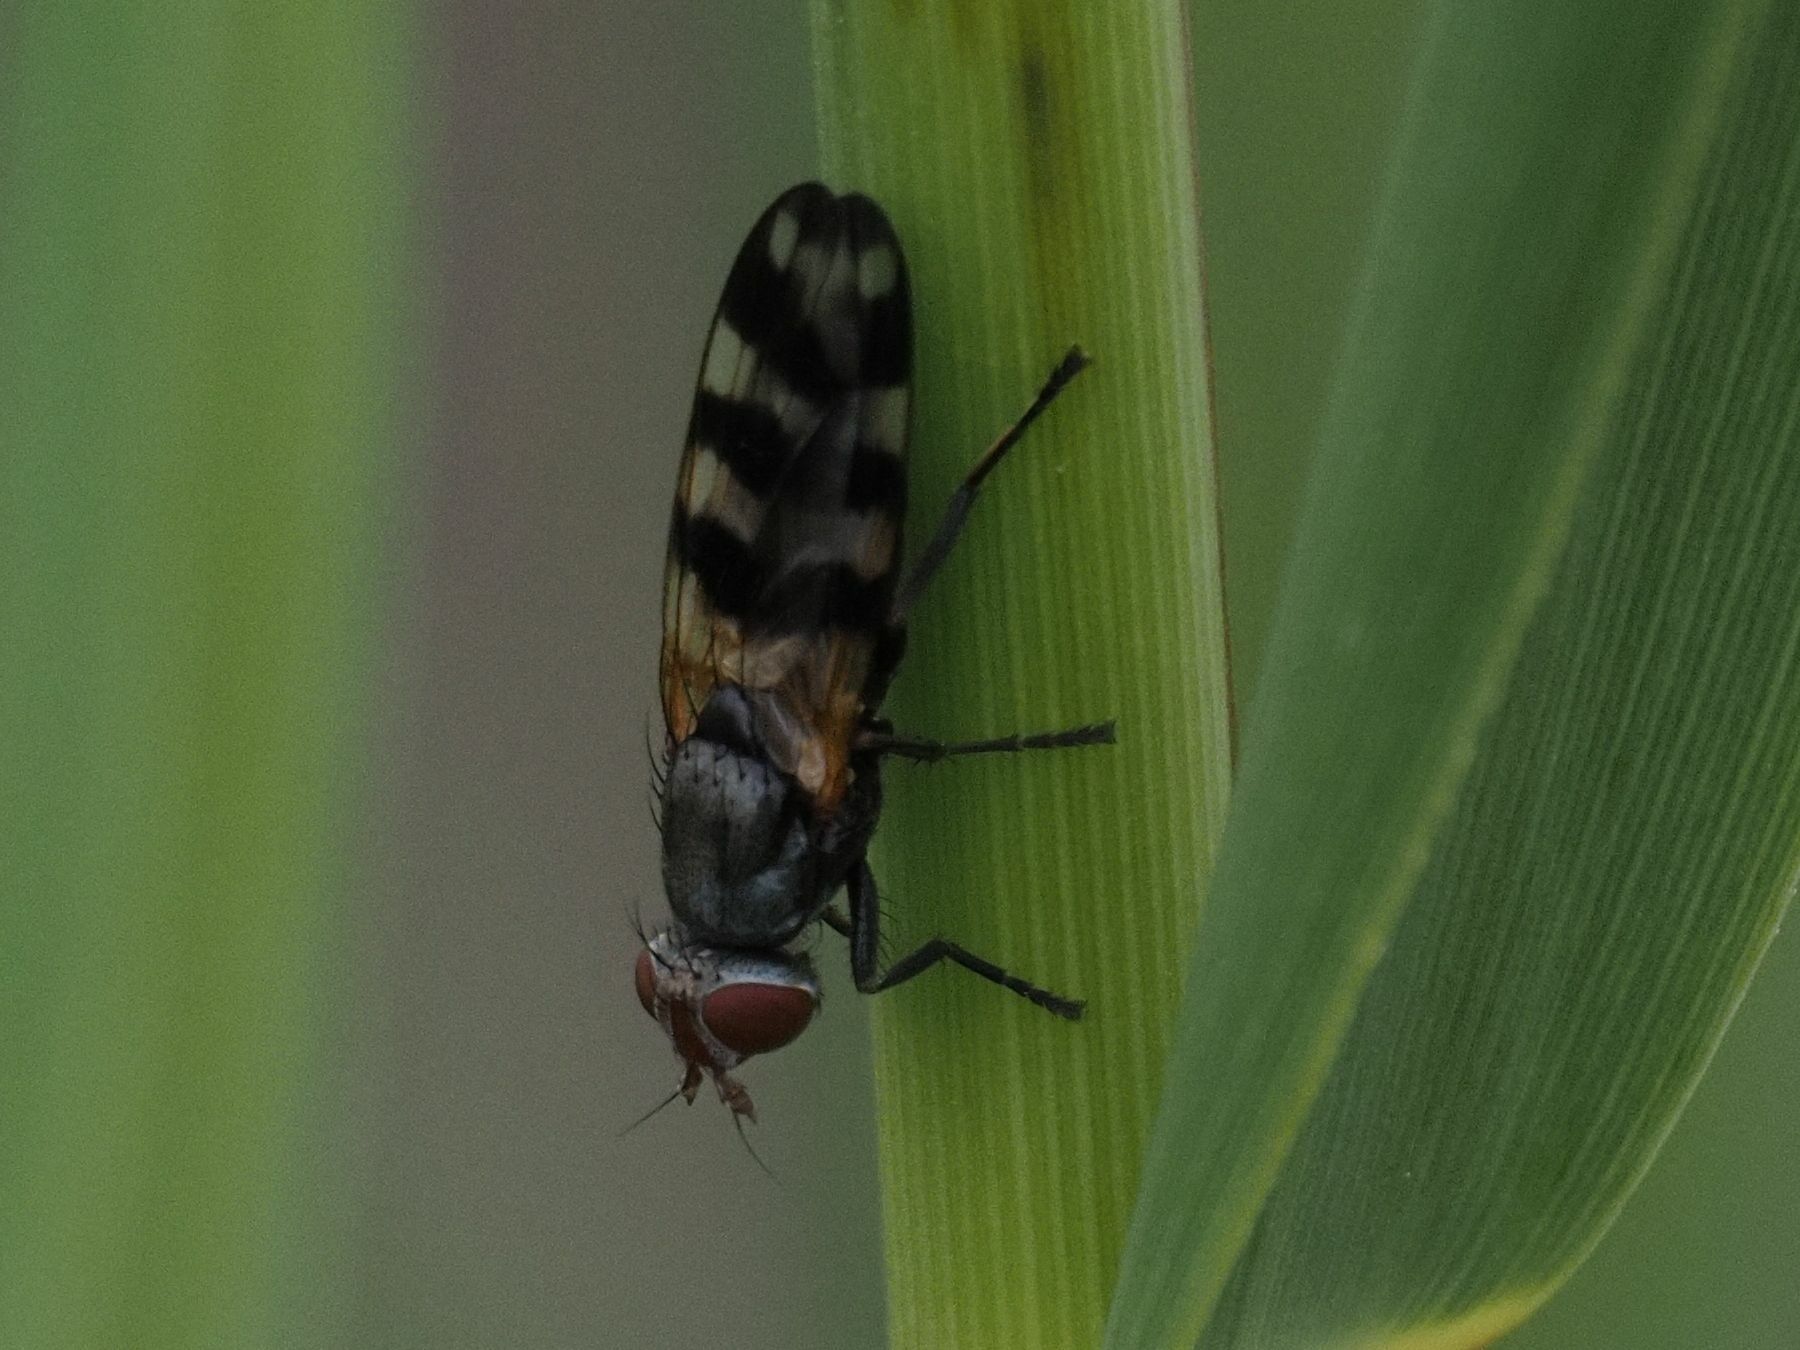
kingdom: Animalia
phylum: Arthropoda
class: Insecta
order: Diptera
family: Ulidiidae
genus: Ceroxys
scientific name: Ceroxys urticae
